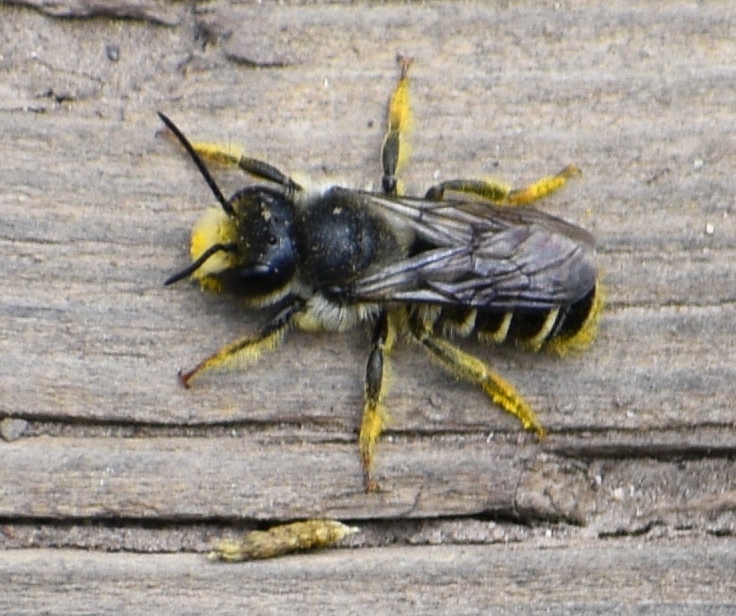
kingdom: Animalia
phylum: Arthropoda
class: Insecta
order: Hymenoptera
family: Megachilidae
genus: Megachile
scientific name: Megachile
